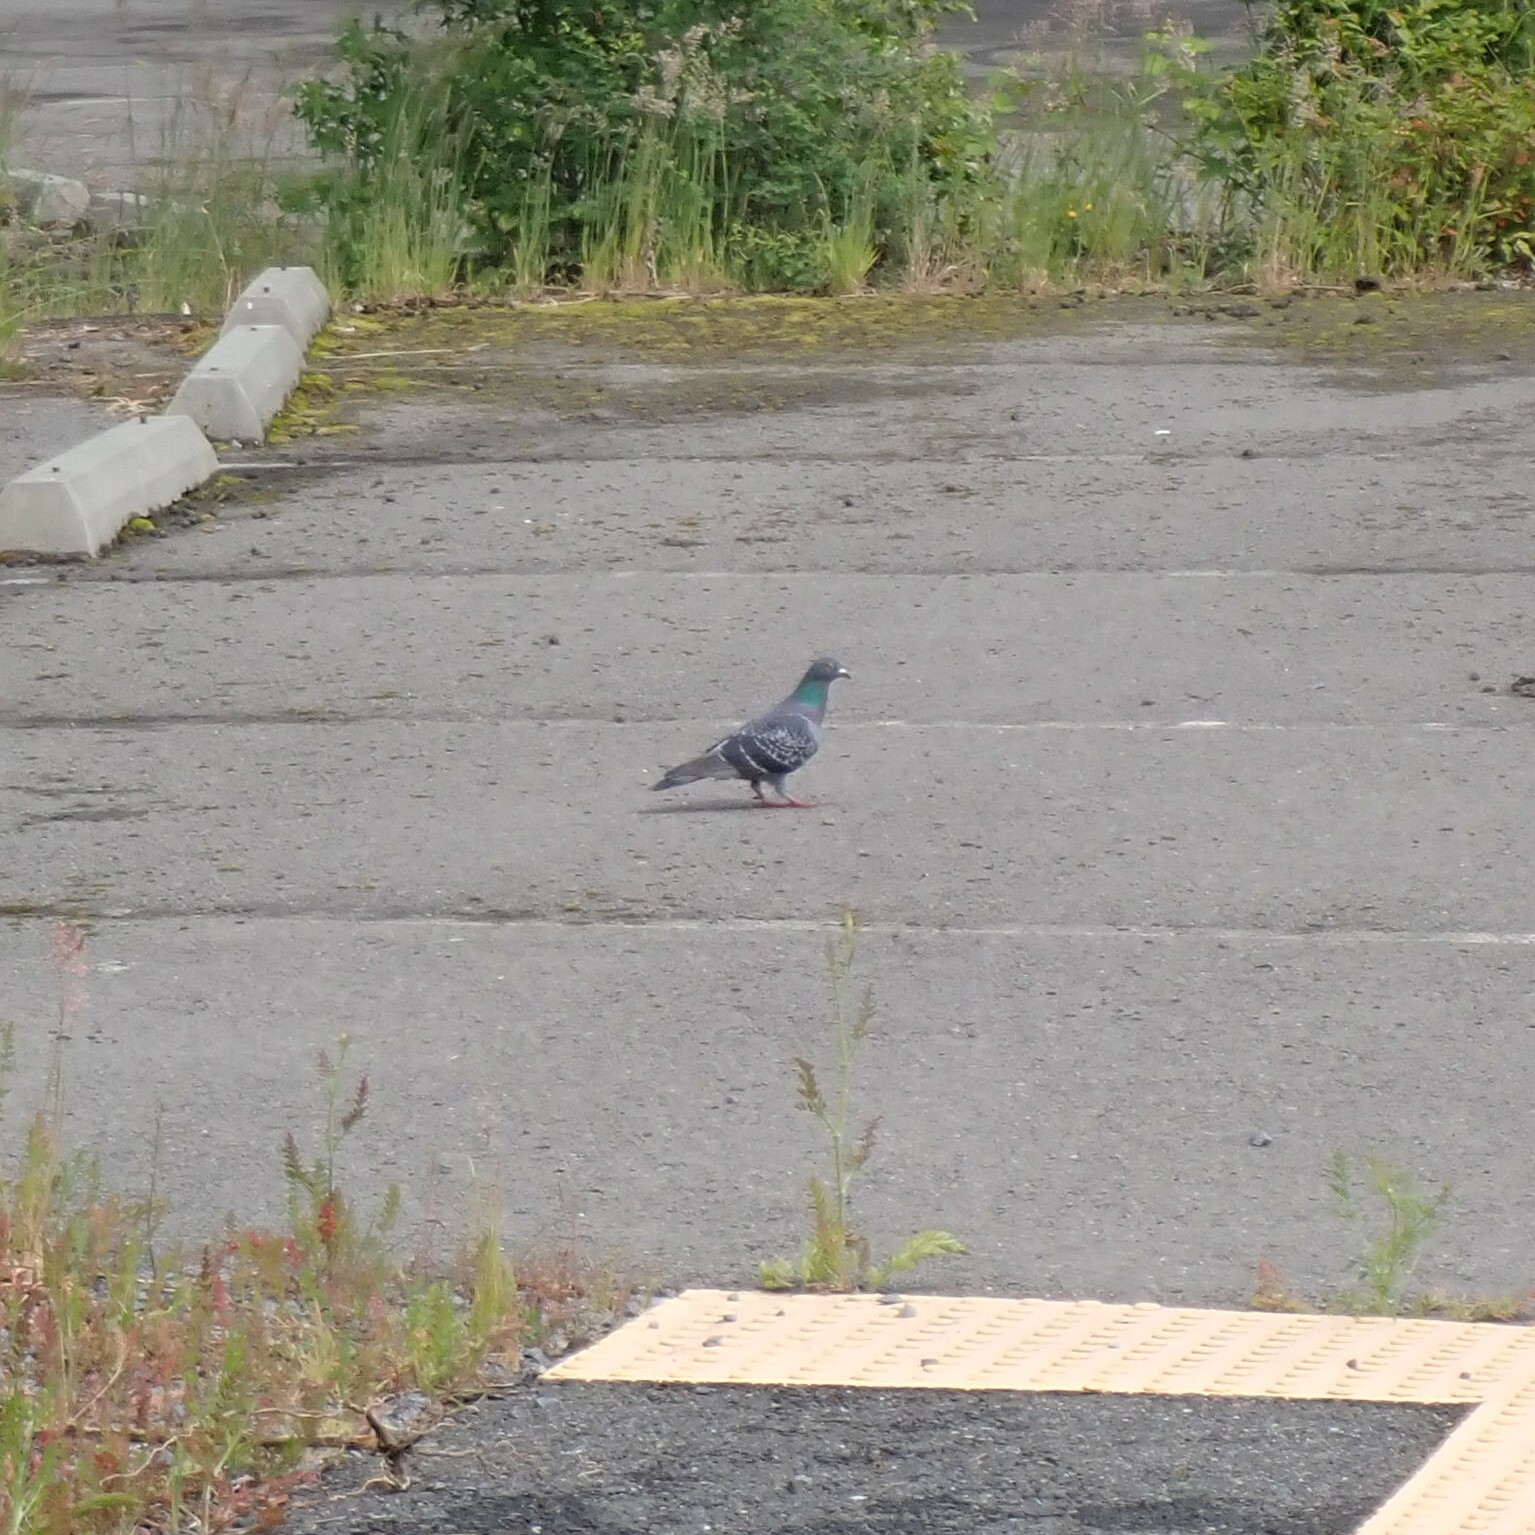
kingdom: Animalia
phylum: Chordata
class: Aves
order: Columbiformes
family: Columbidae
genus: Columba
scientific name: Columba livia
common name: Rock pigeon
